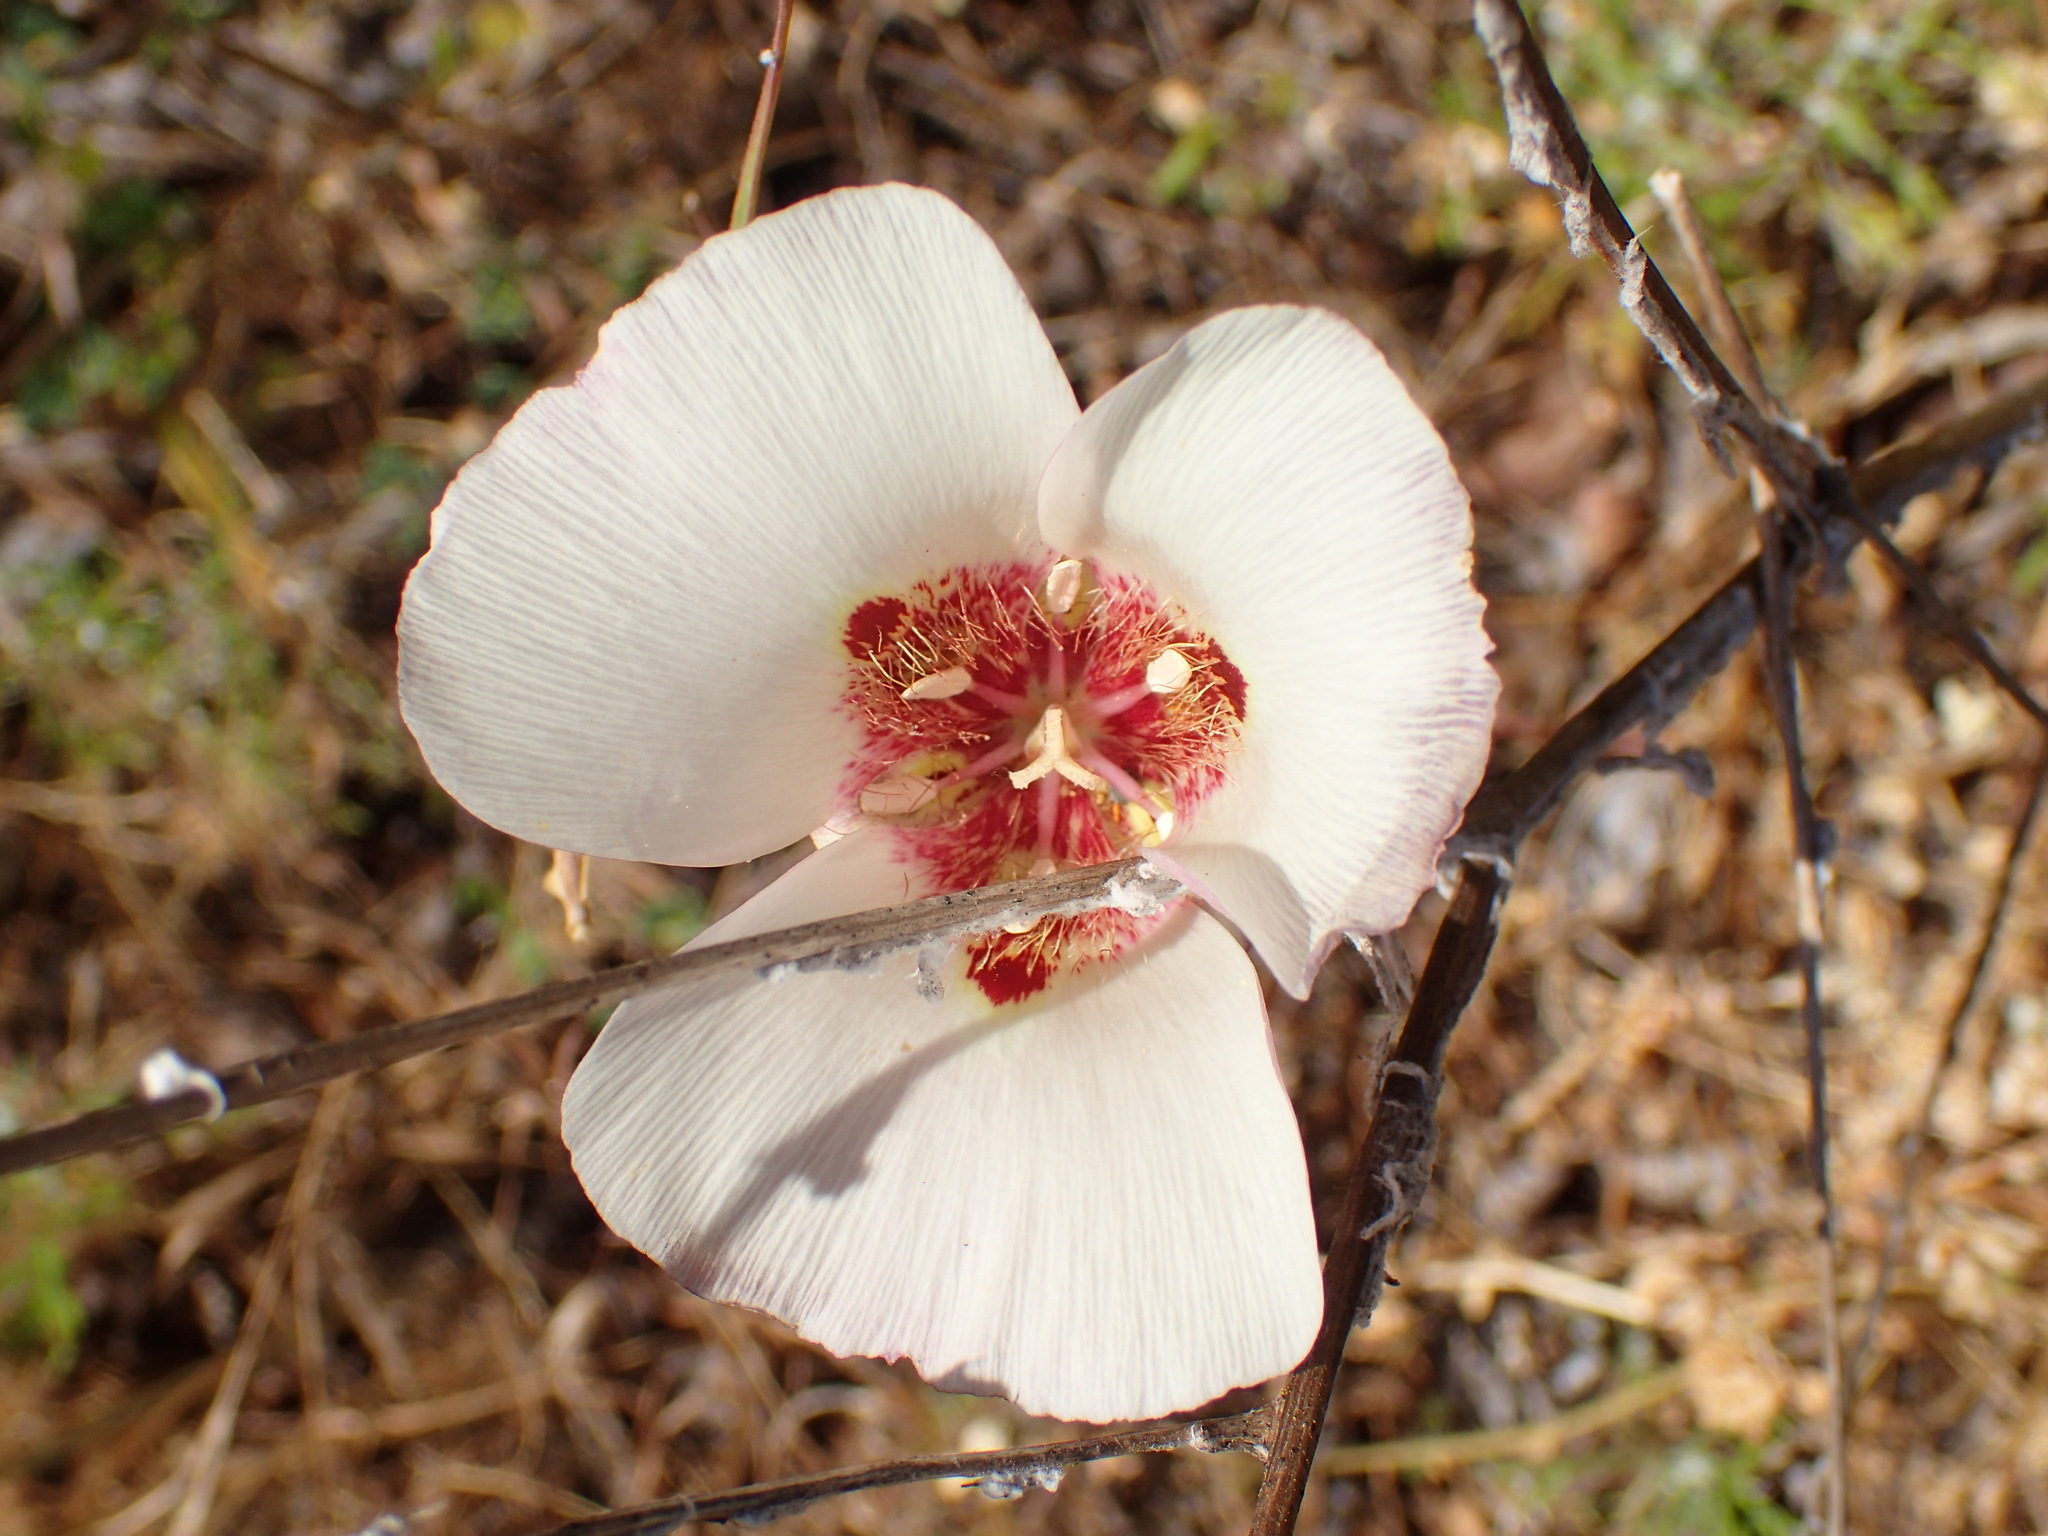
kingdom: Plantae
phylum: Tracheophyta
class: Liliopsida
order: Liliales
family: Liliaceae
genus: Calochortus
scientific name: Calochortus venustus
